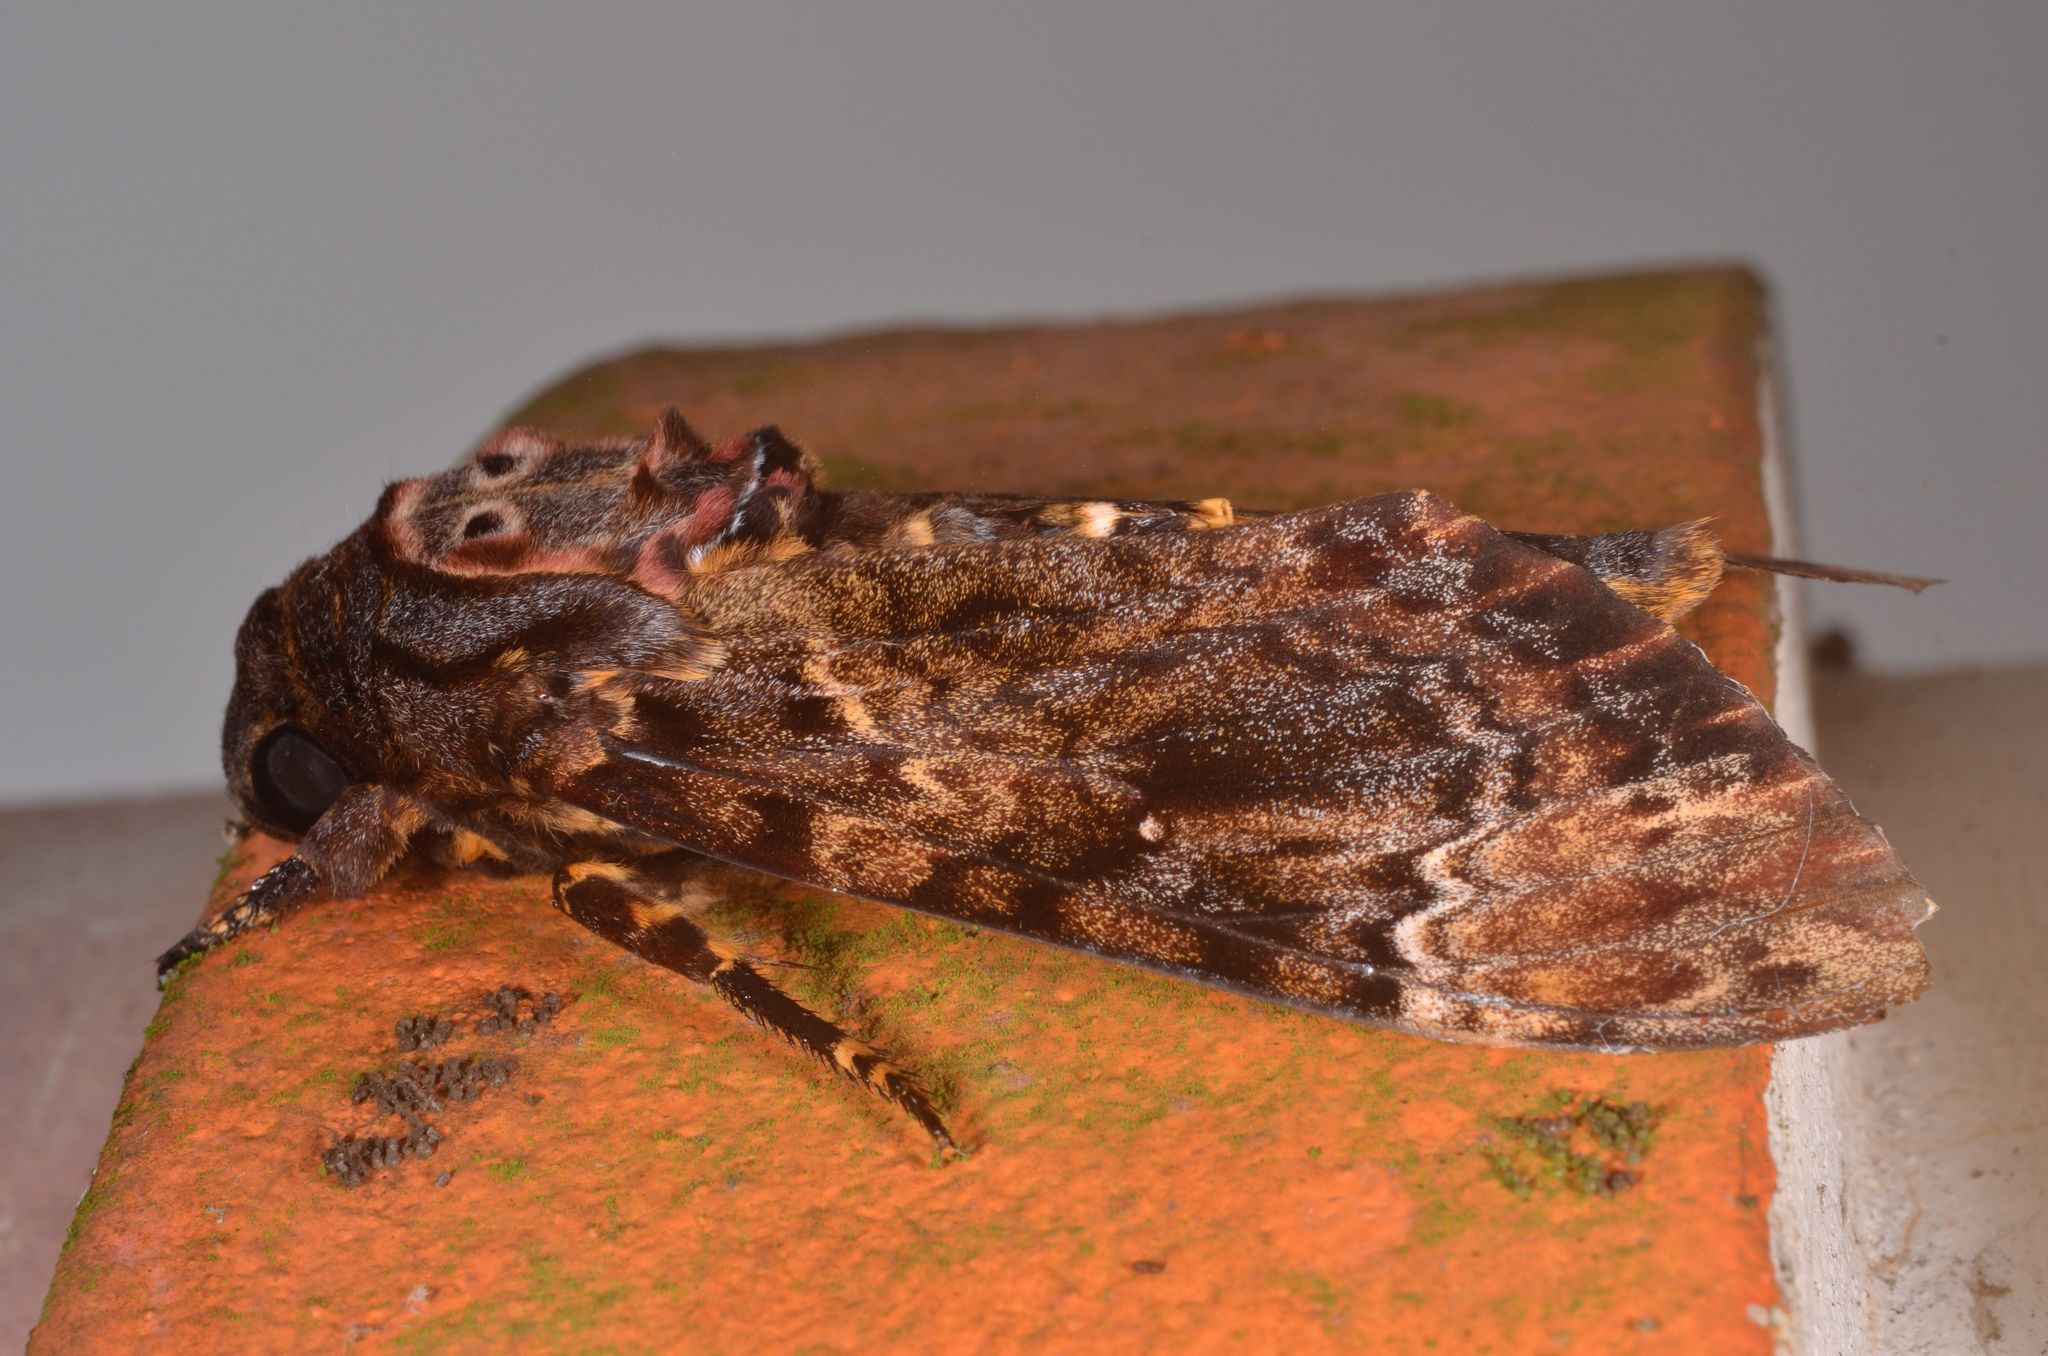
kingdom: Animalia
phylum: Arthropoda
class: Insecta
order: Lepidoptera
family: Sphingidae
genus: Acherontia
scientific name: Acherontia lachesis
